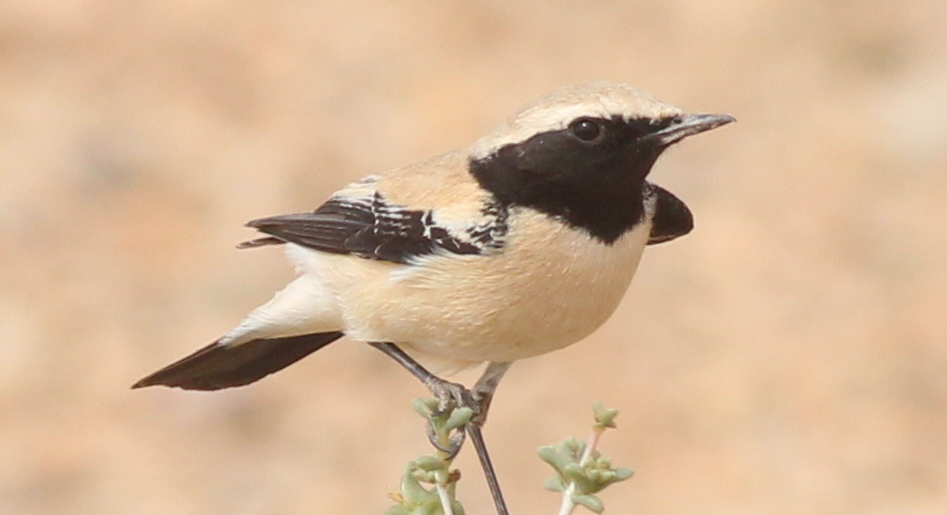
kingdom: Animalia
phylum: Chordata
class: Aves
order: Passeriformes
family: Muscicapidae
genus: Oenanthe
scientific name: Oenanthe deserti
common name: Desert wheatear
